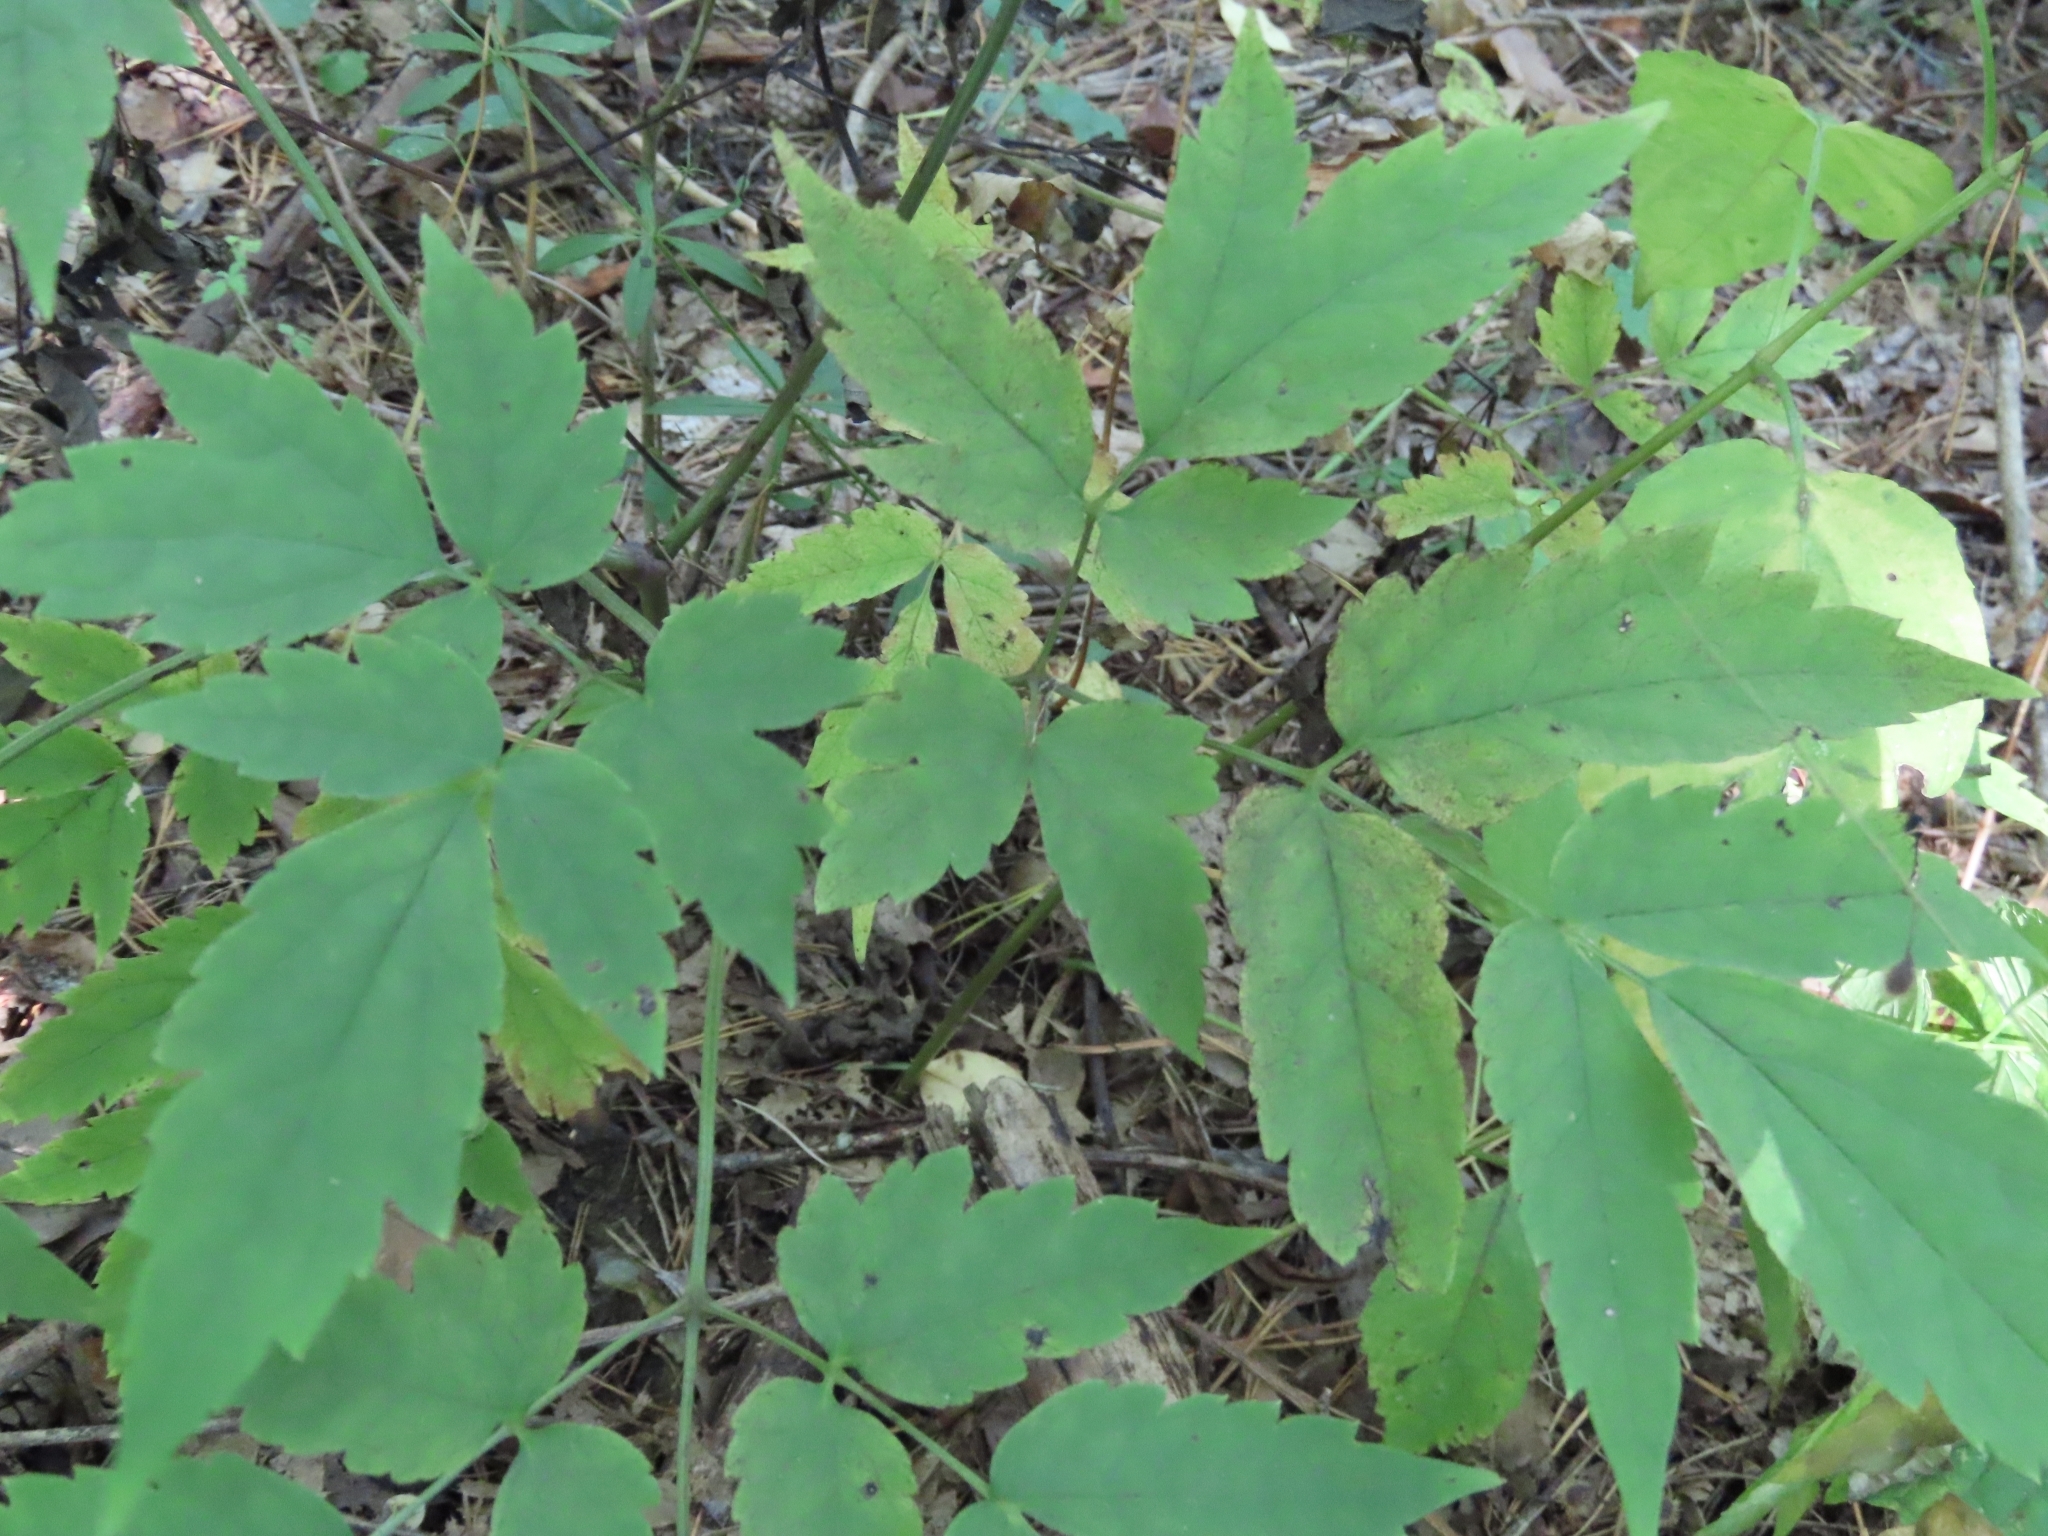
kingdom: Plantae
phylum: Tracheophyta
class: Magnoliopsida
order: Ranunculales
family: Ranunculaceae
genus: Actaea
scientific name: Actaea pachypoda
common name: Doll's-eyes
